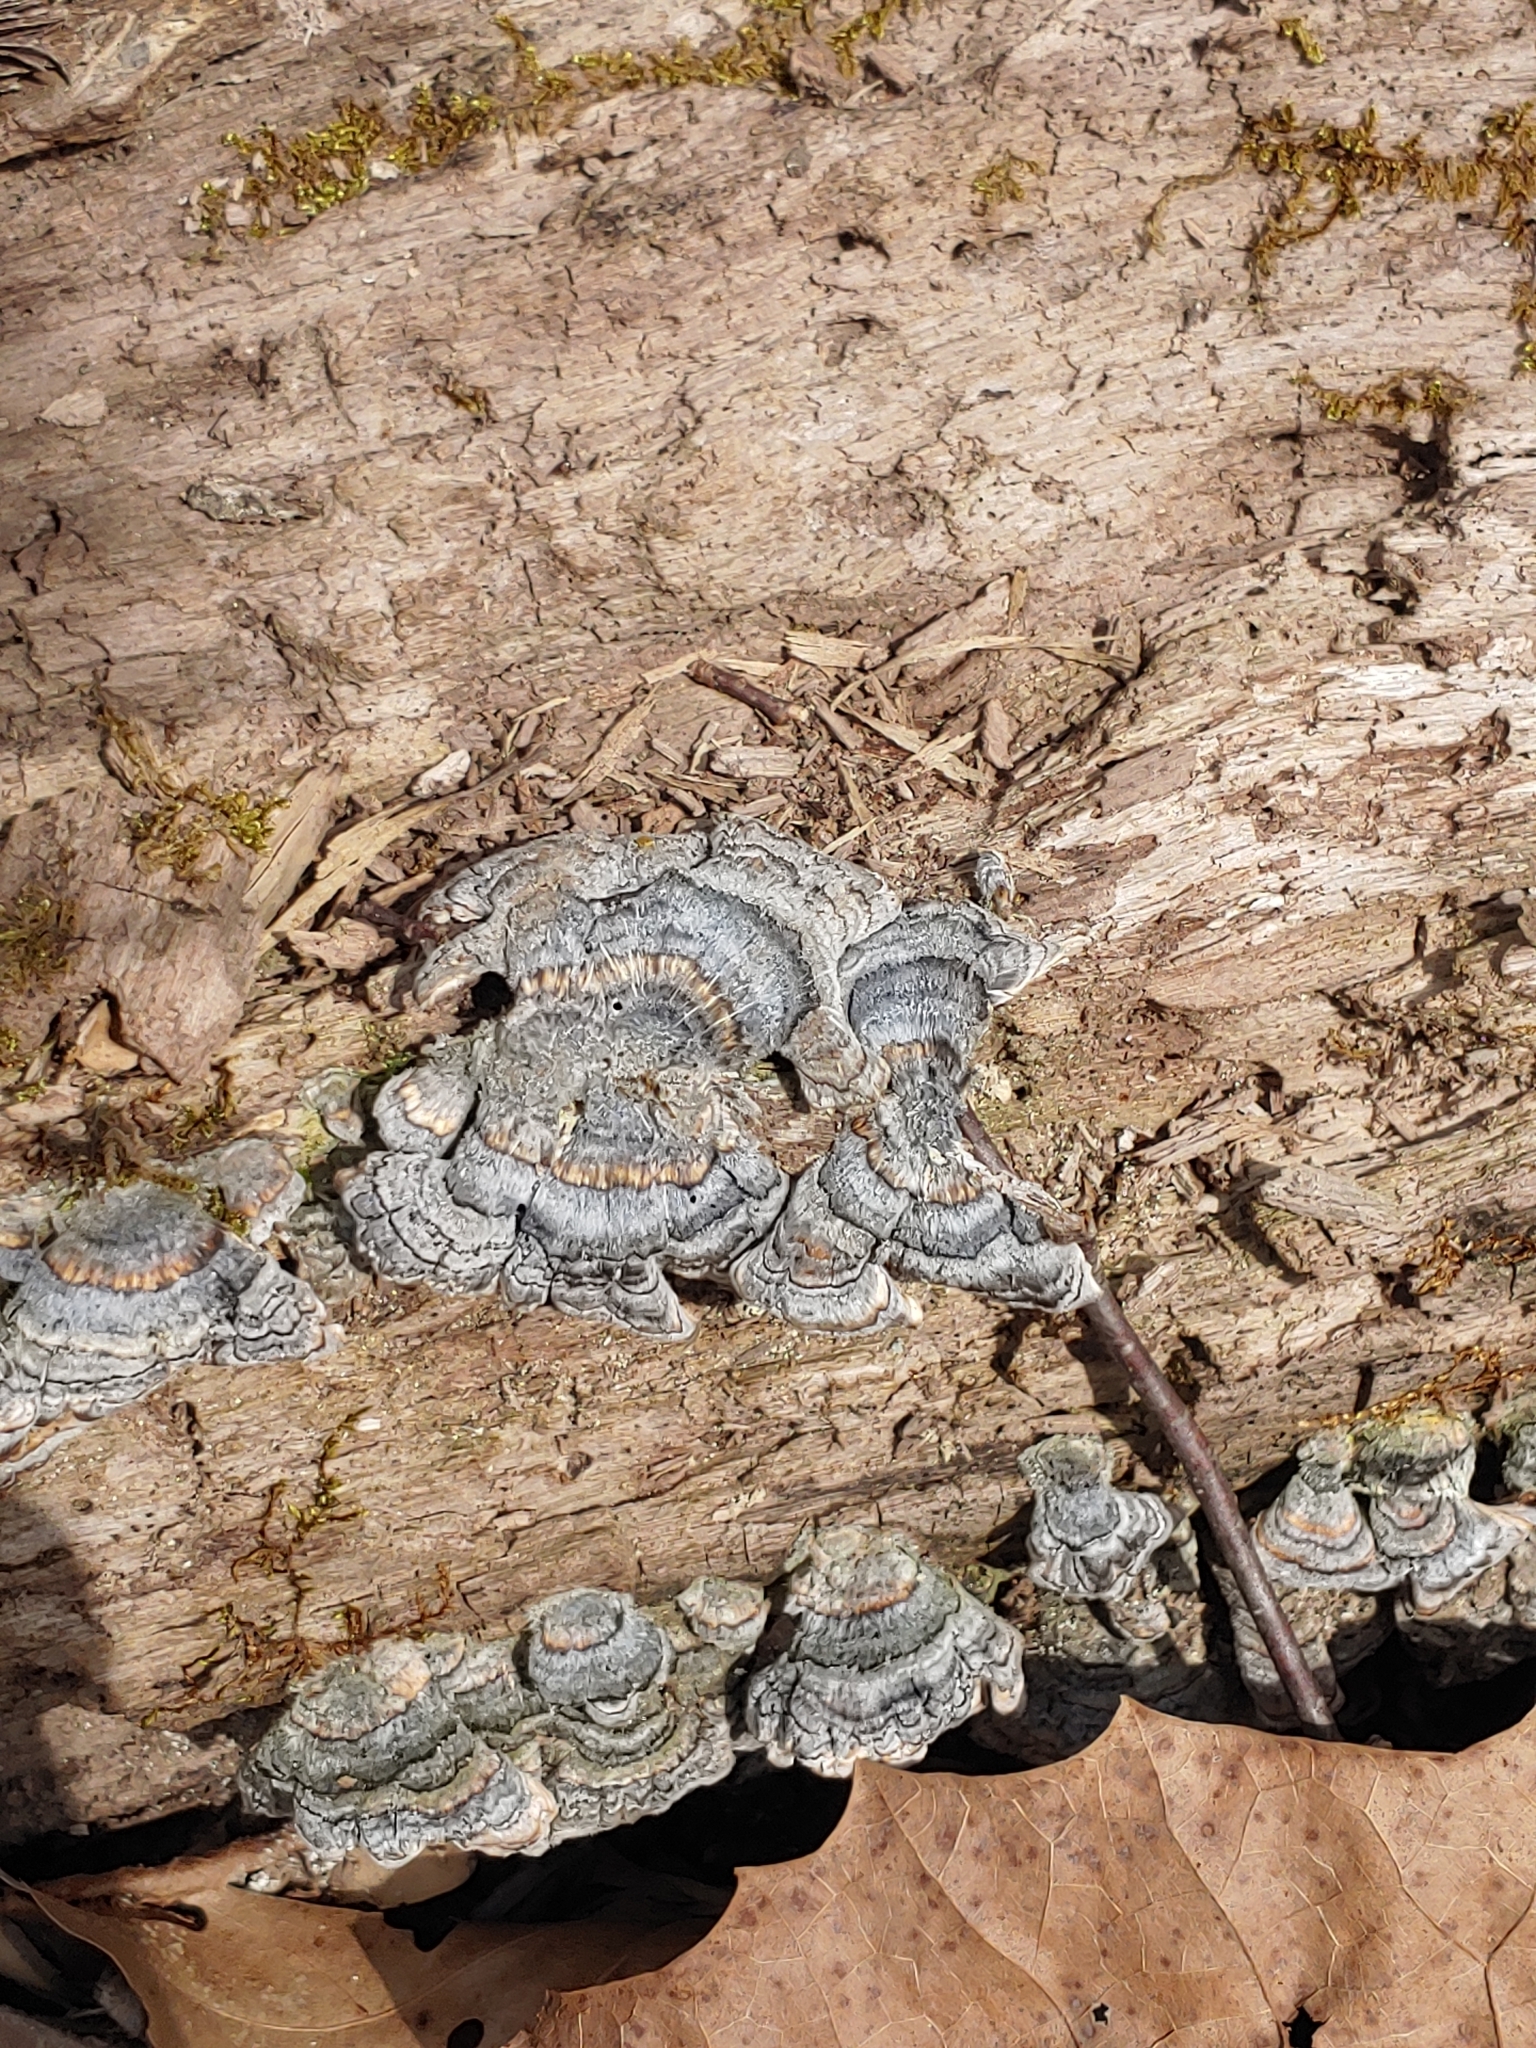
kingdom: Fungi
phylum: Basidiomycota
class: Agaricomycetes
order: Polyporales
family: Polyporaceae
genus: Trametes
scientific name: Trametes versicolor
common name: Turkeytail
